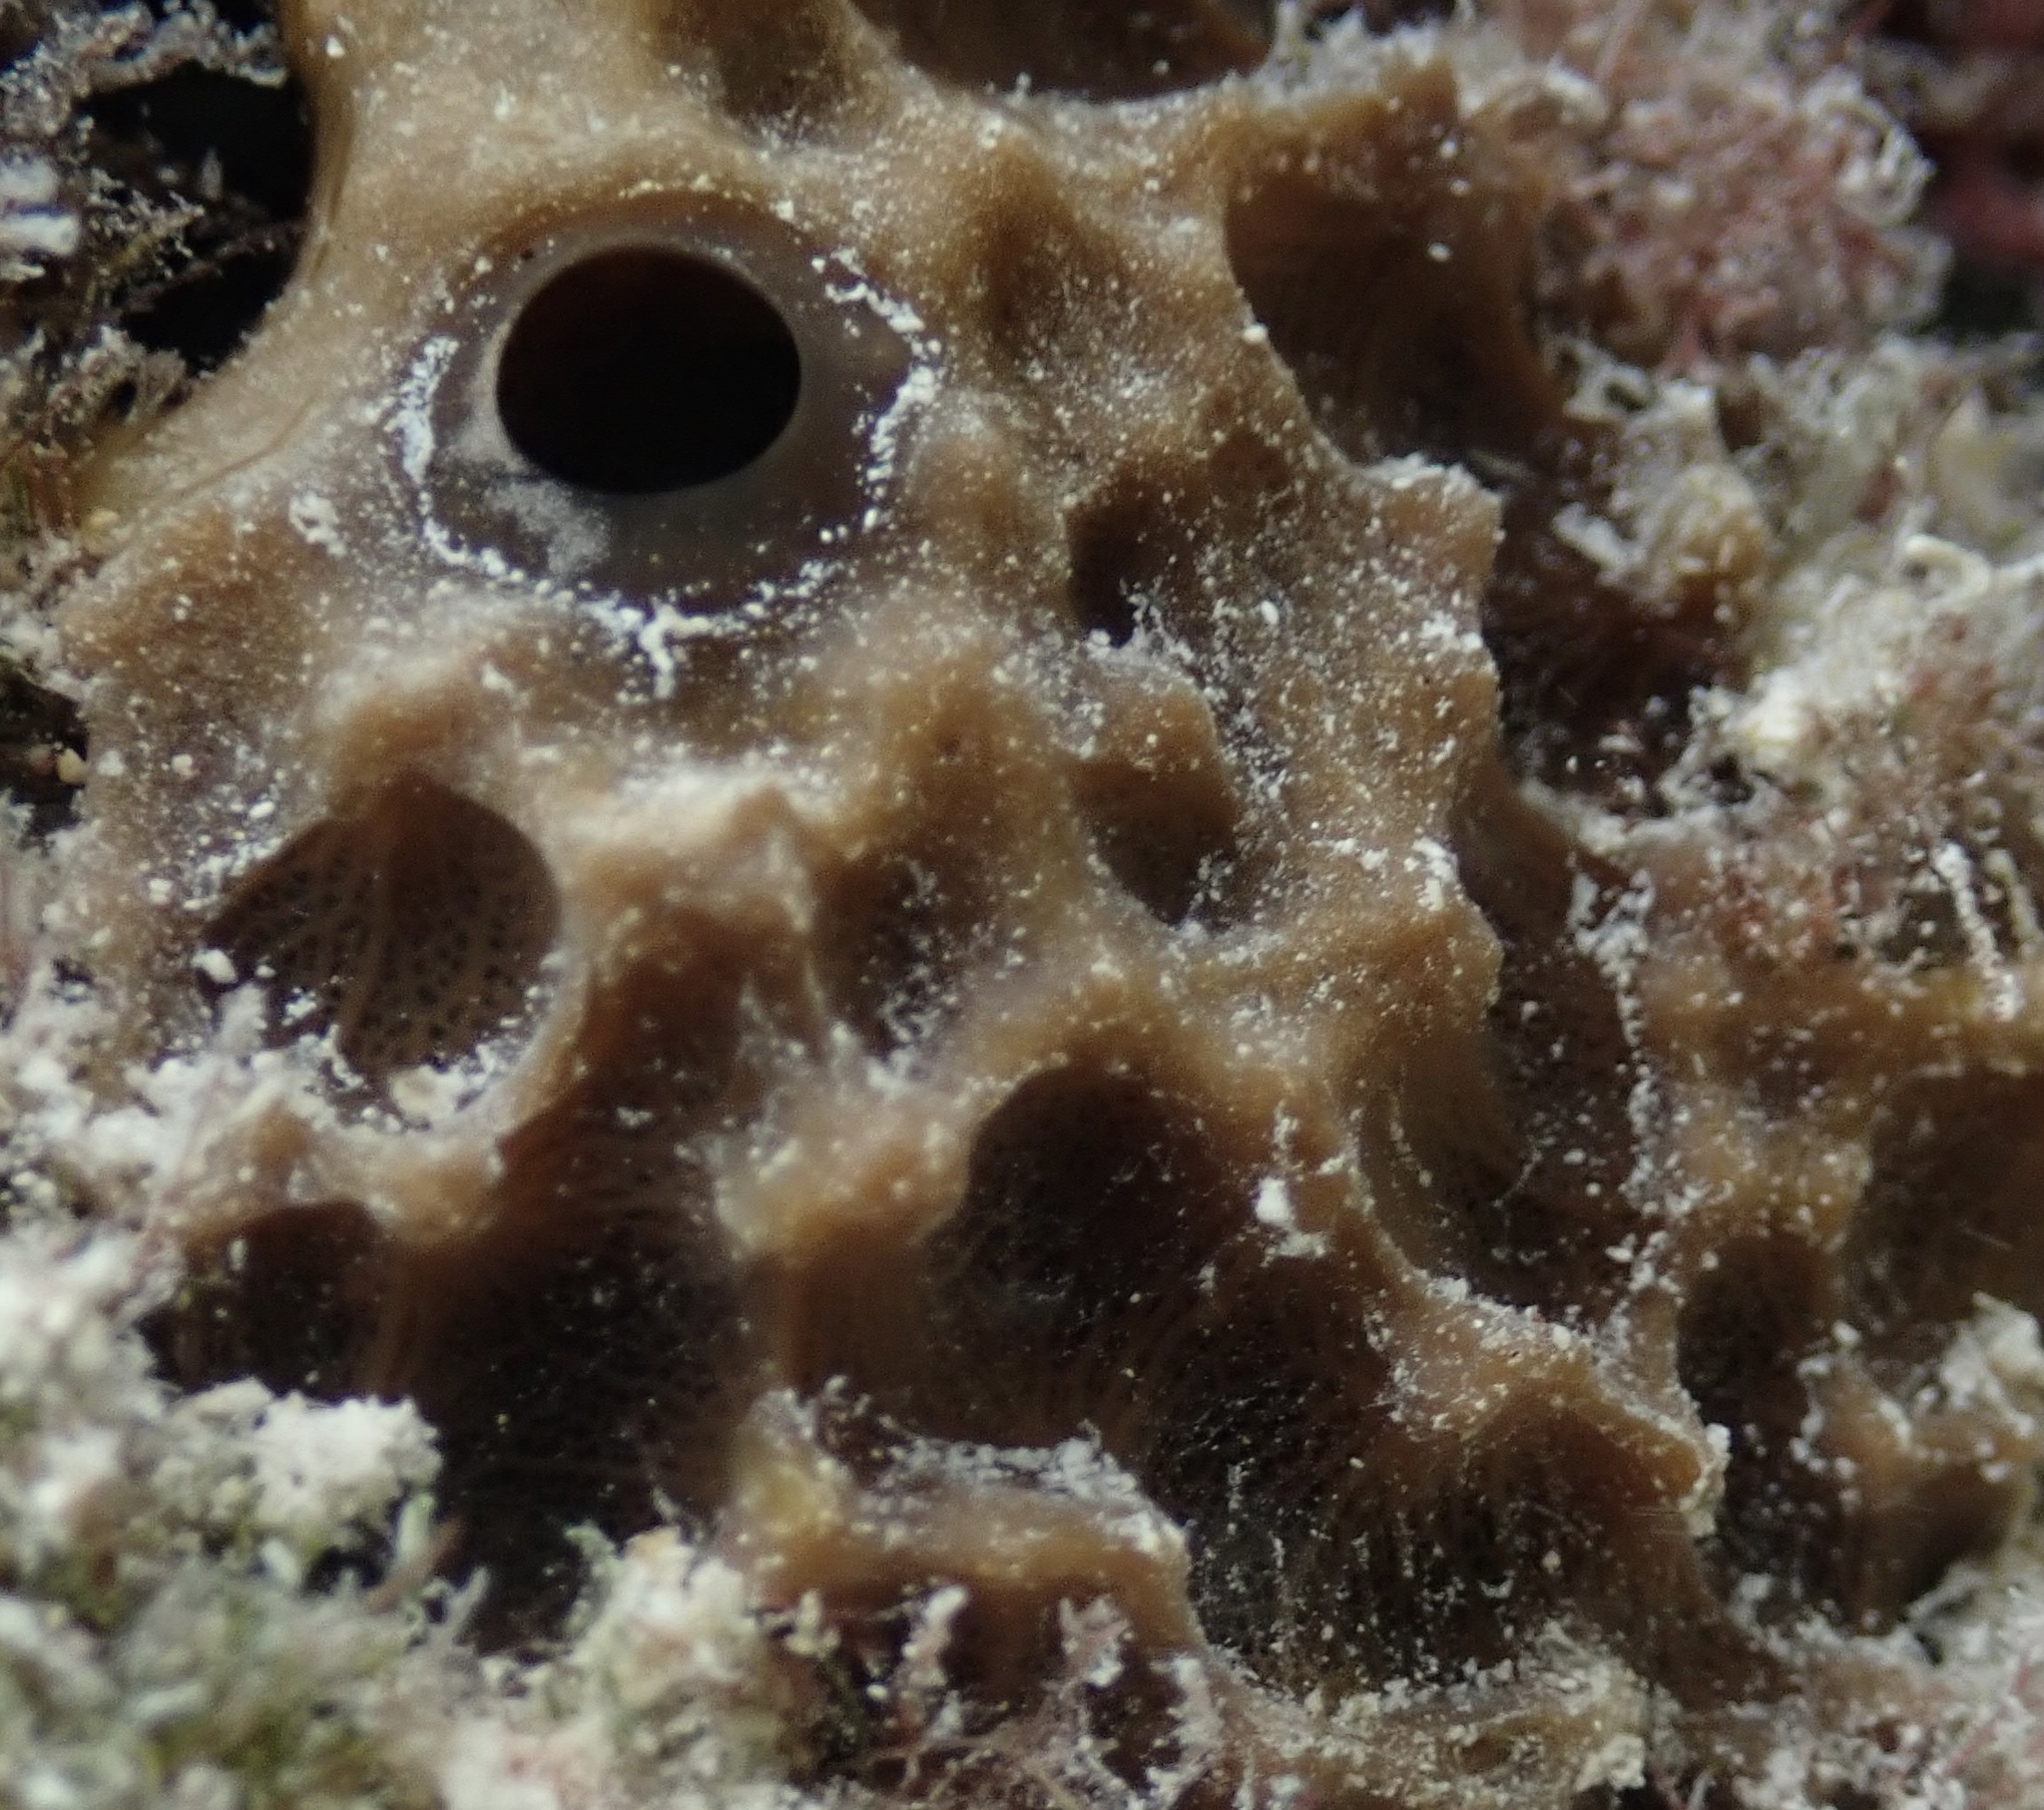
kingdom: Animalia
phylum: Porifera
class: Demospongiae
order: Dictyoceratida
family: Irciniidae
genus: Ircinia
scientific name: Ircinia felix
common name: Stinker sponge
